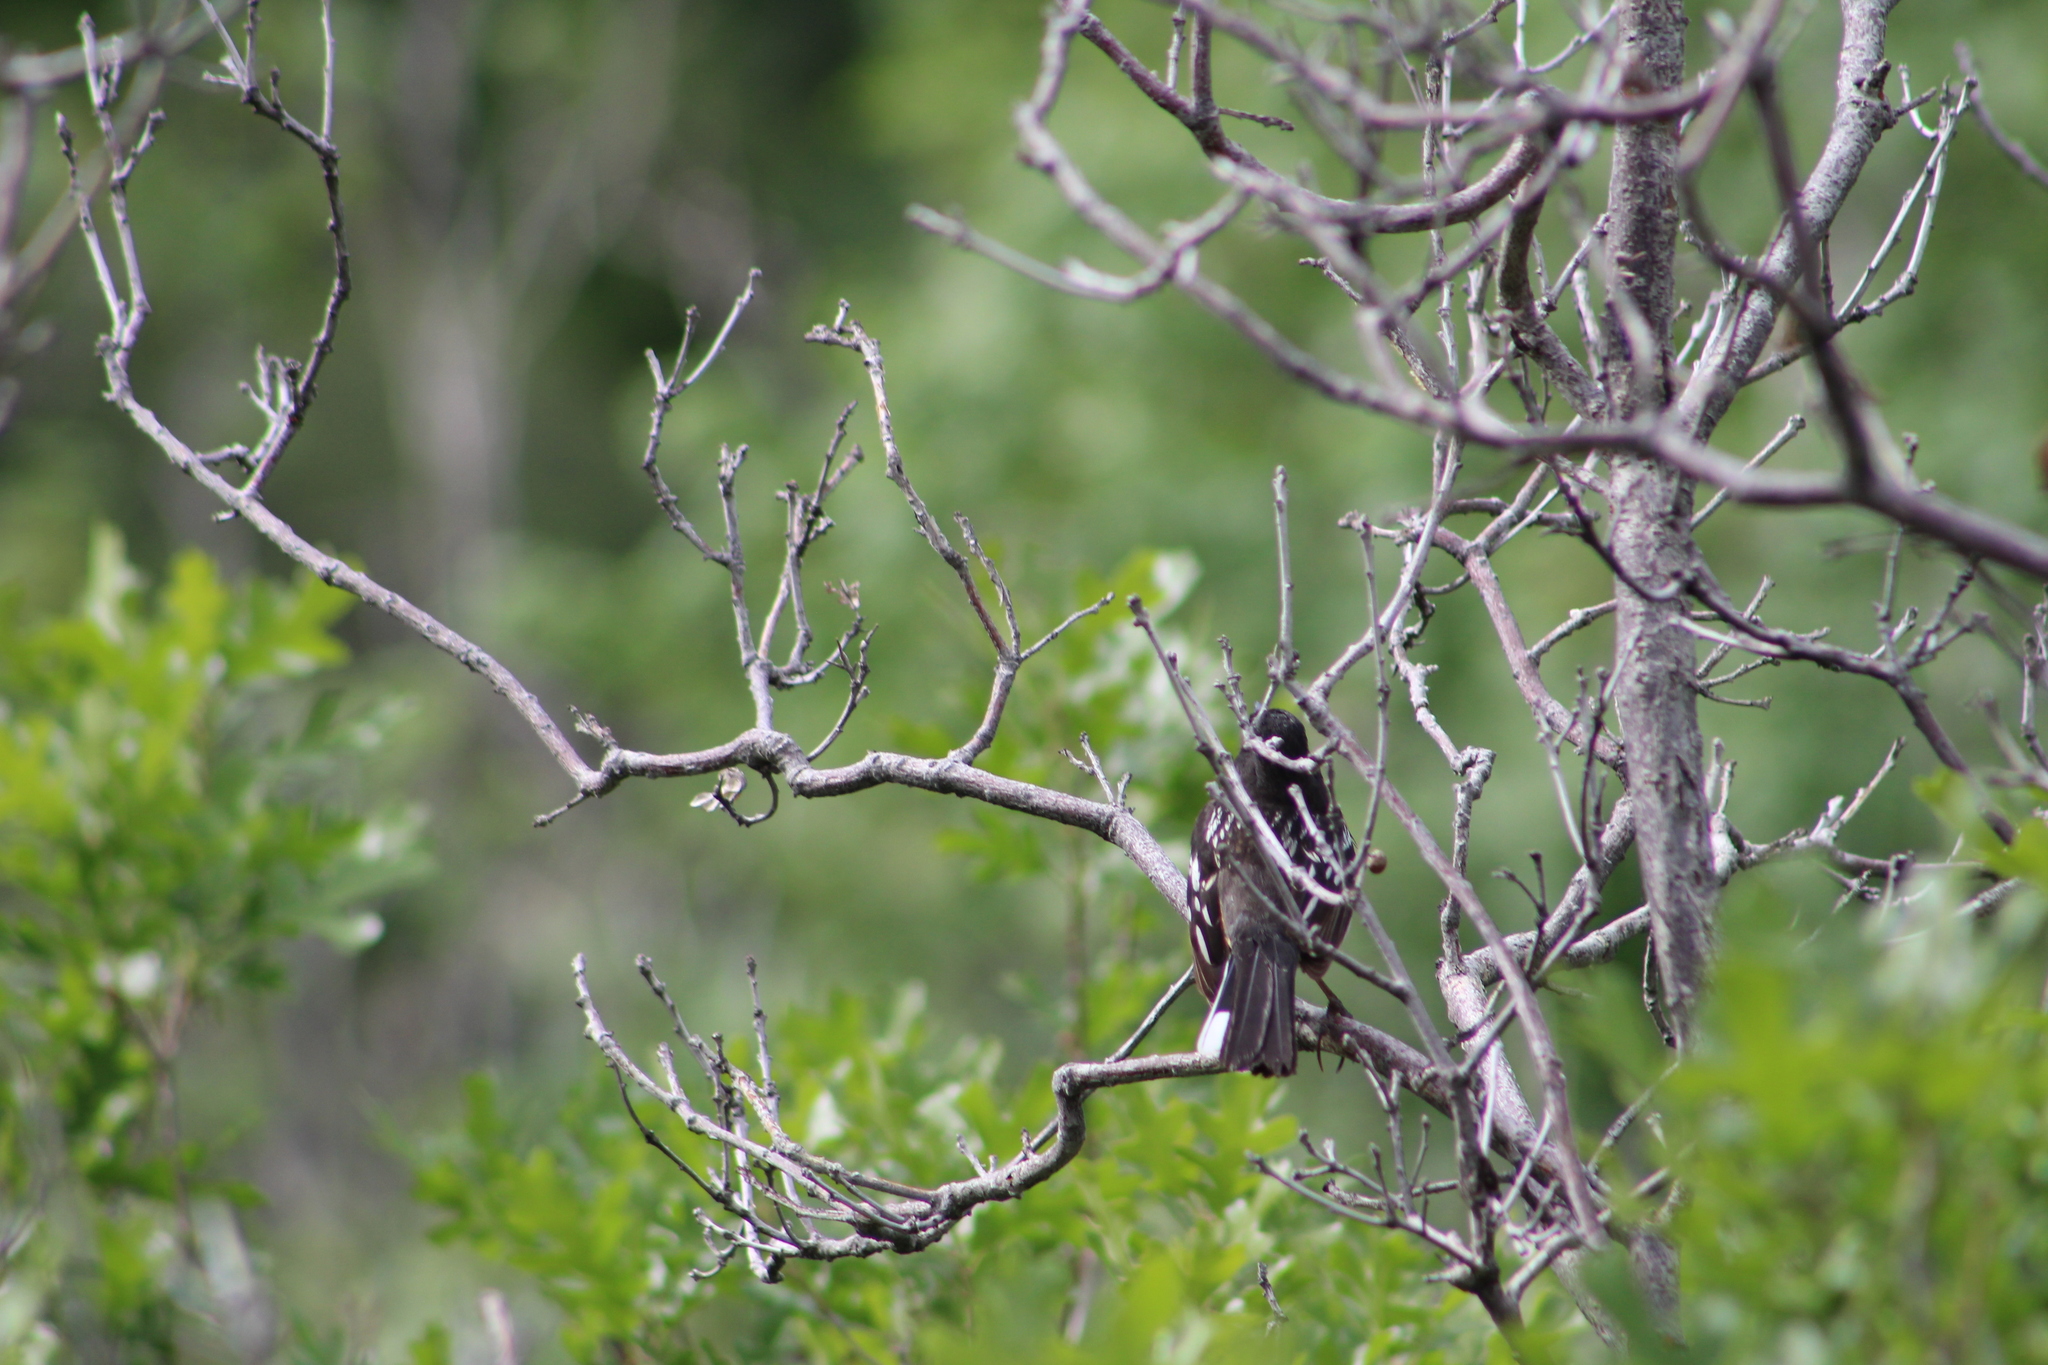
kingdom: Animalia
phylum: Chordata
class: Aves
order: Passeriformes
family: Passerellidae
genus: Pipilo
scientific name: Pipilo maculatus
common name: Spotted towhee
